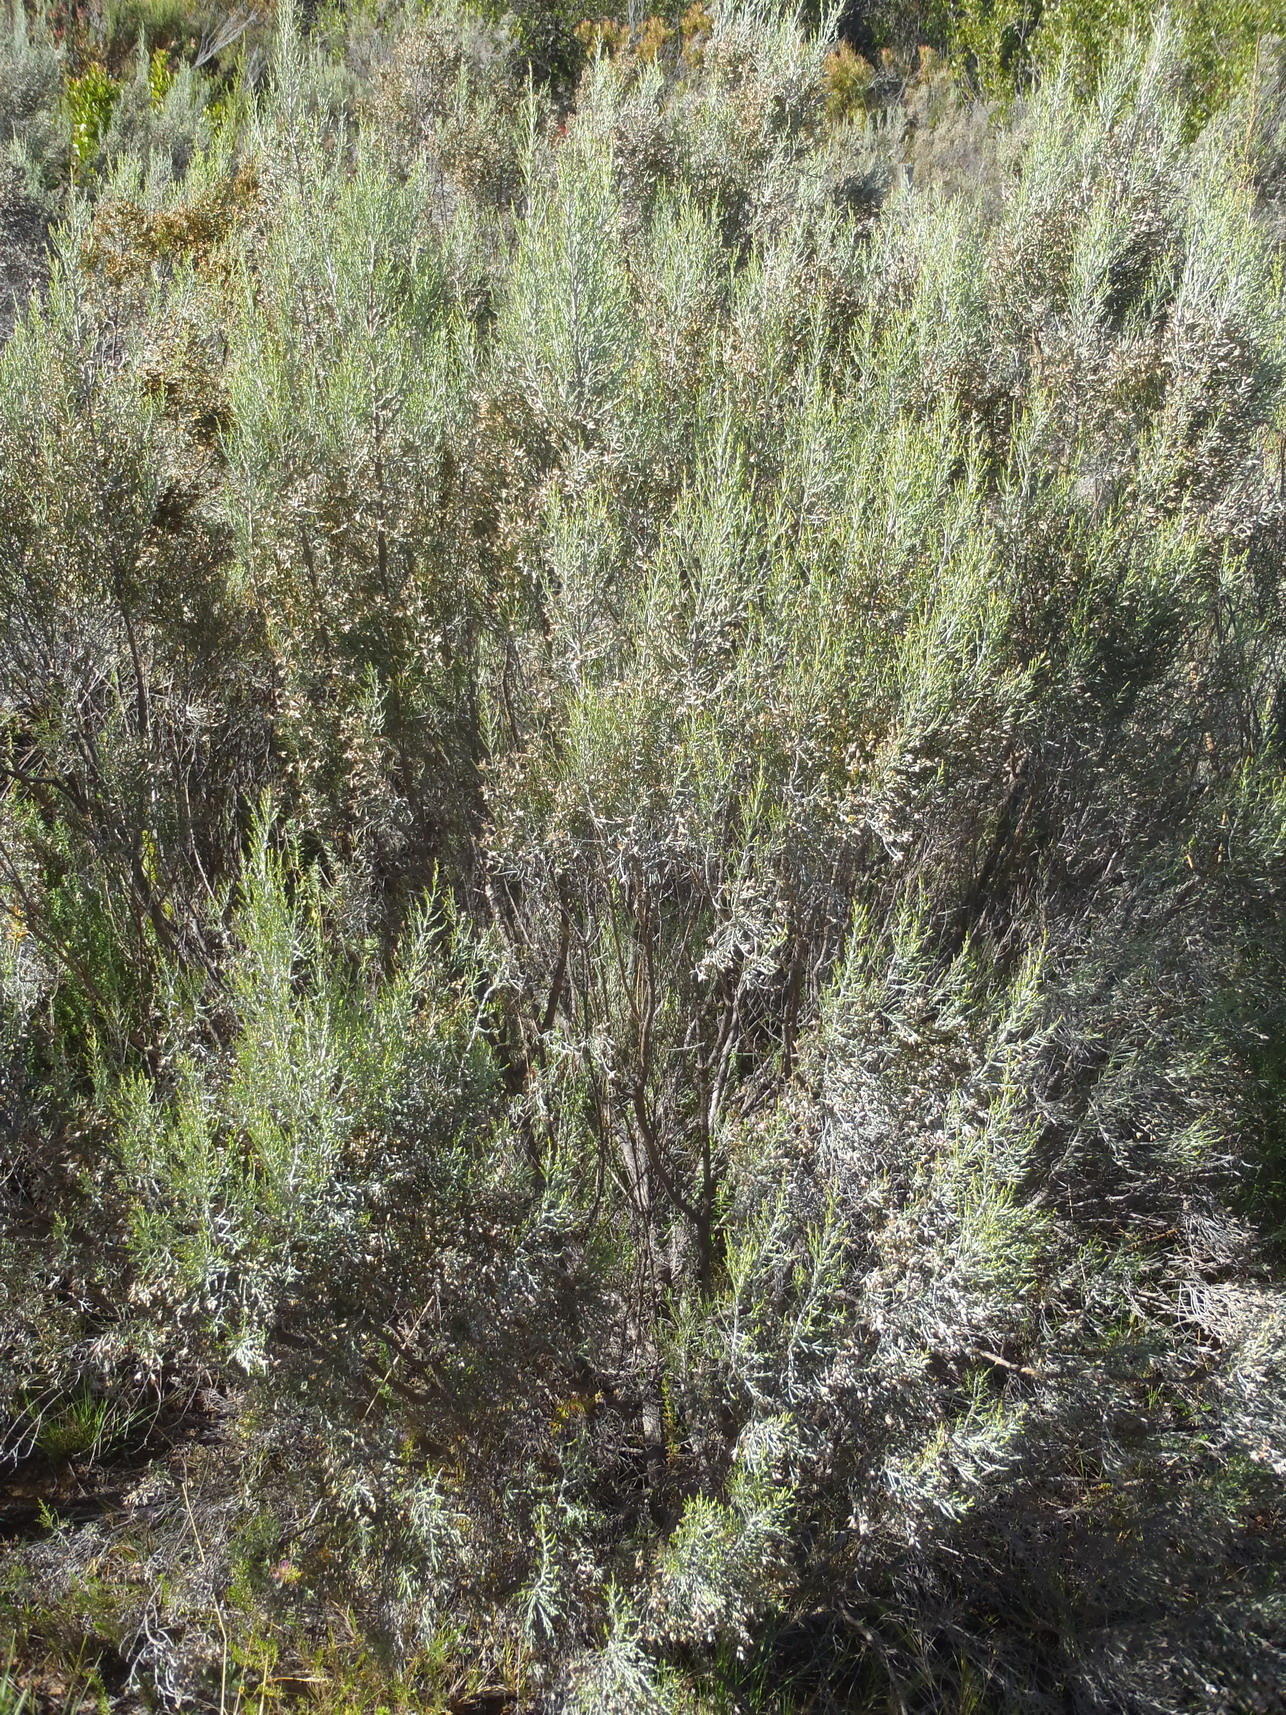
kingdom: Plantae
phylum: Tracheophyta
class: Magnoliopsida
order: Asterales
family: Asteraceae
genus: Dicerothamnus
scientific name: Dicerothamnus rhinocerotis
